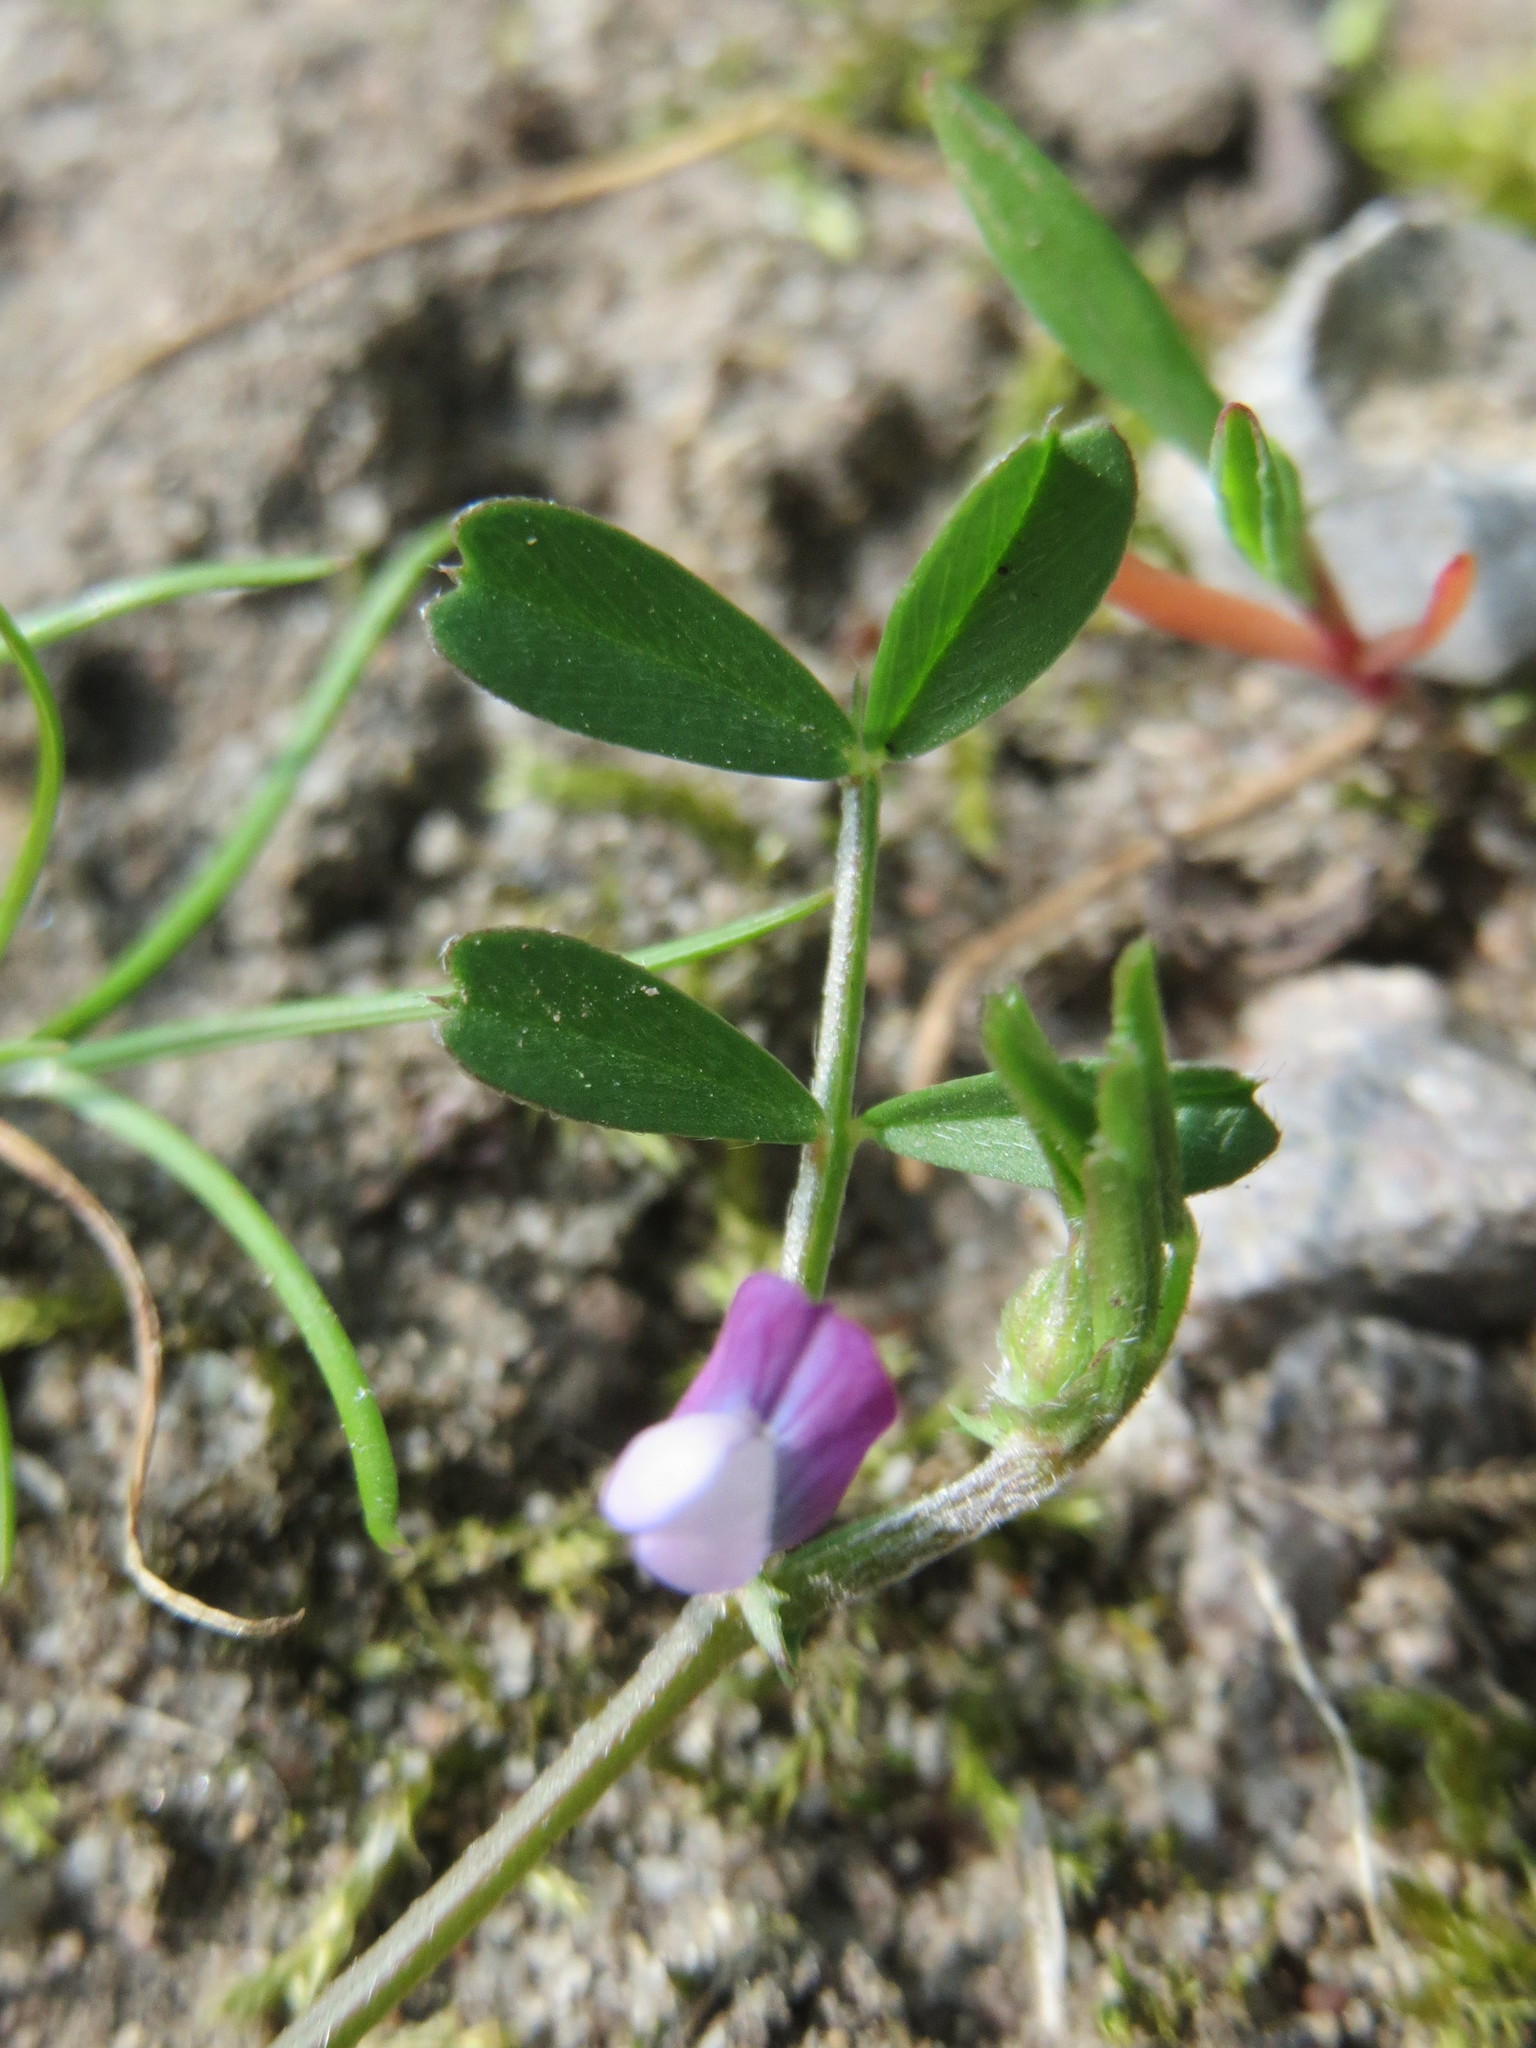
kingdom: Plantae
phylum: Tracheophyta
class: Magnoliopsida
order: Fabales
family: Fabaceae
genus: Vicia
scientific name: Vicia lathyroides
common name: Spring vetch
